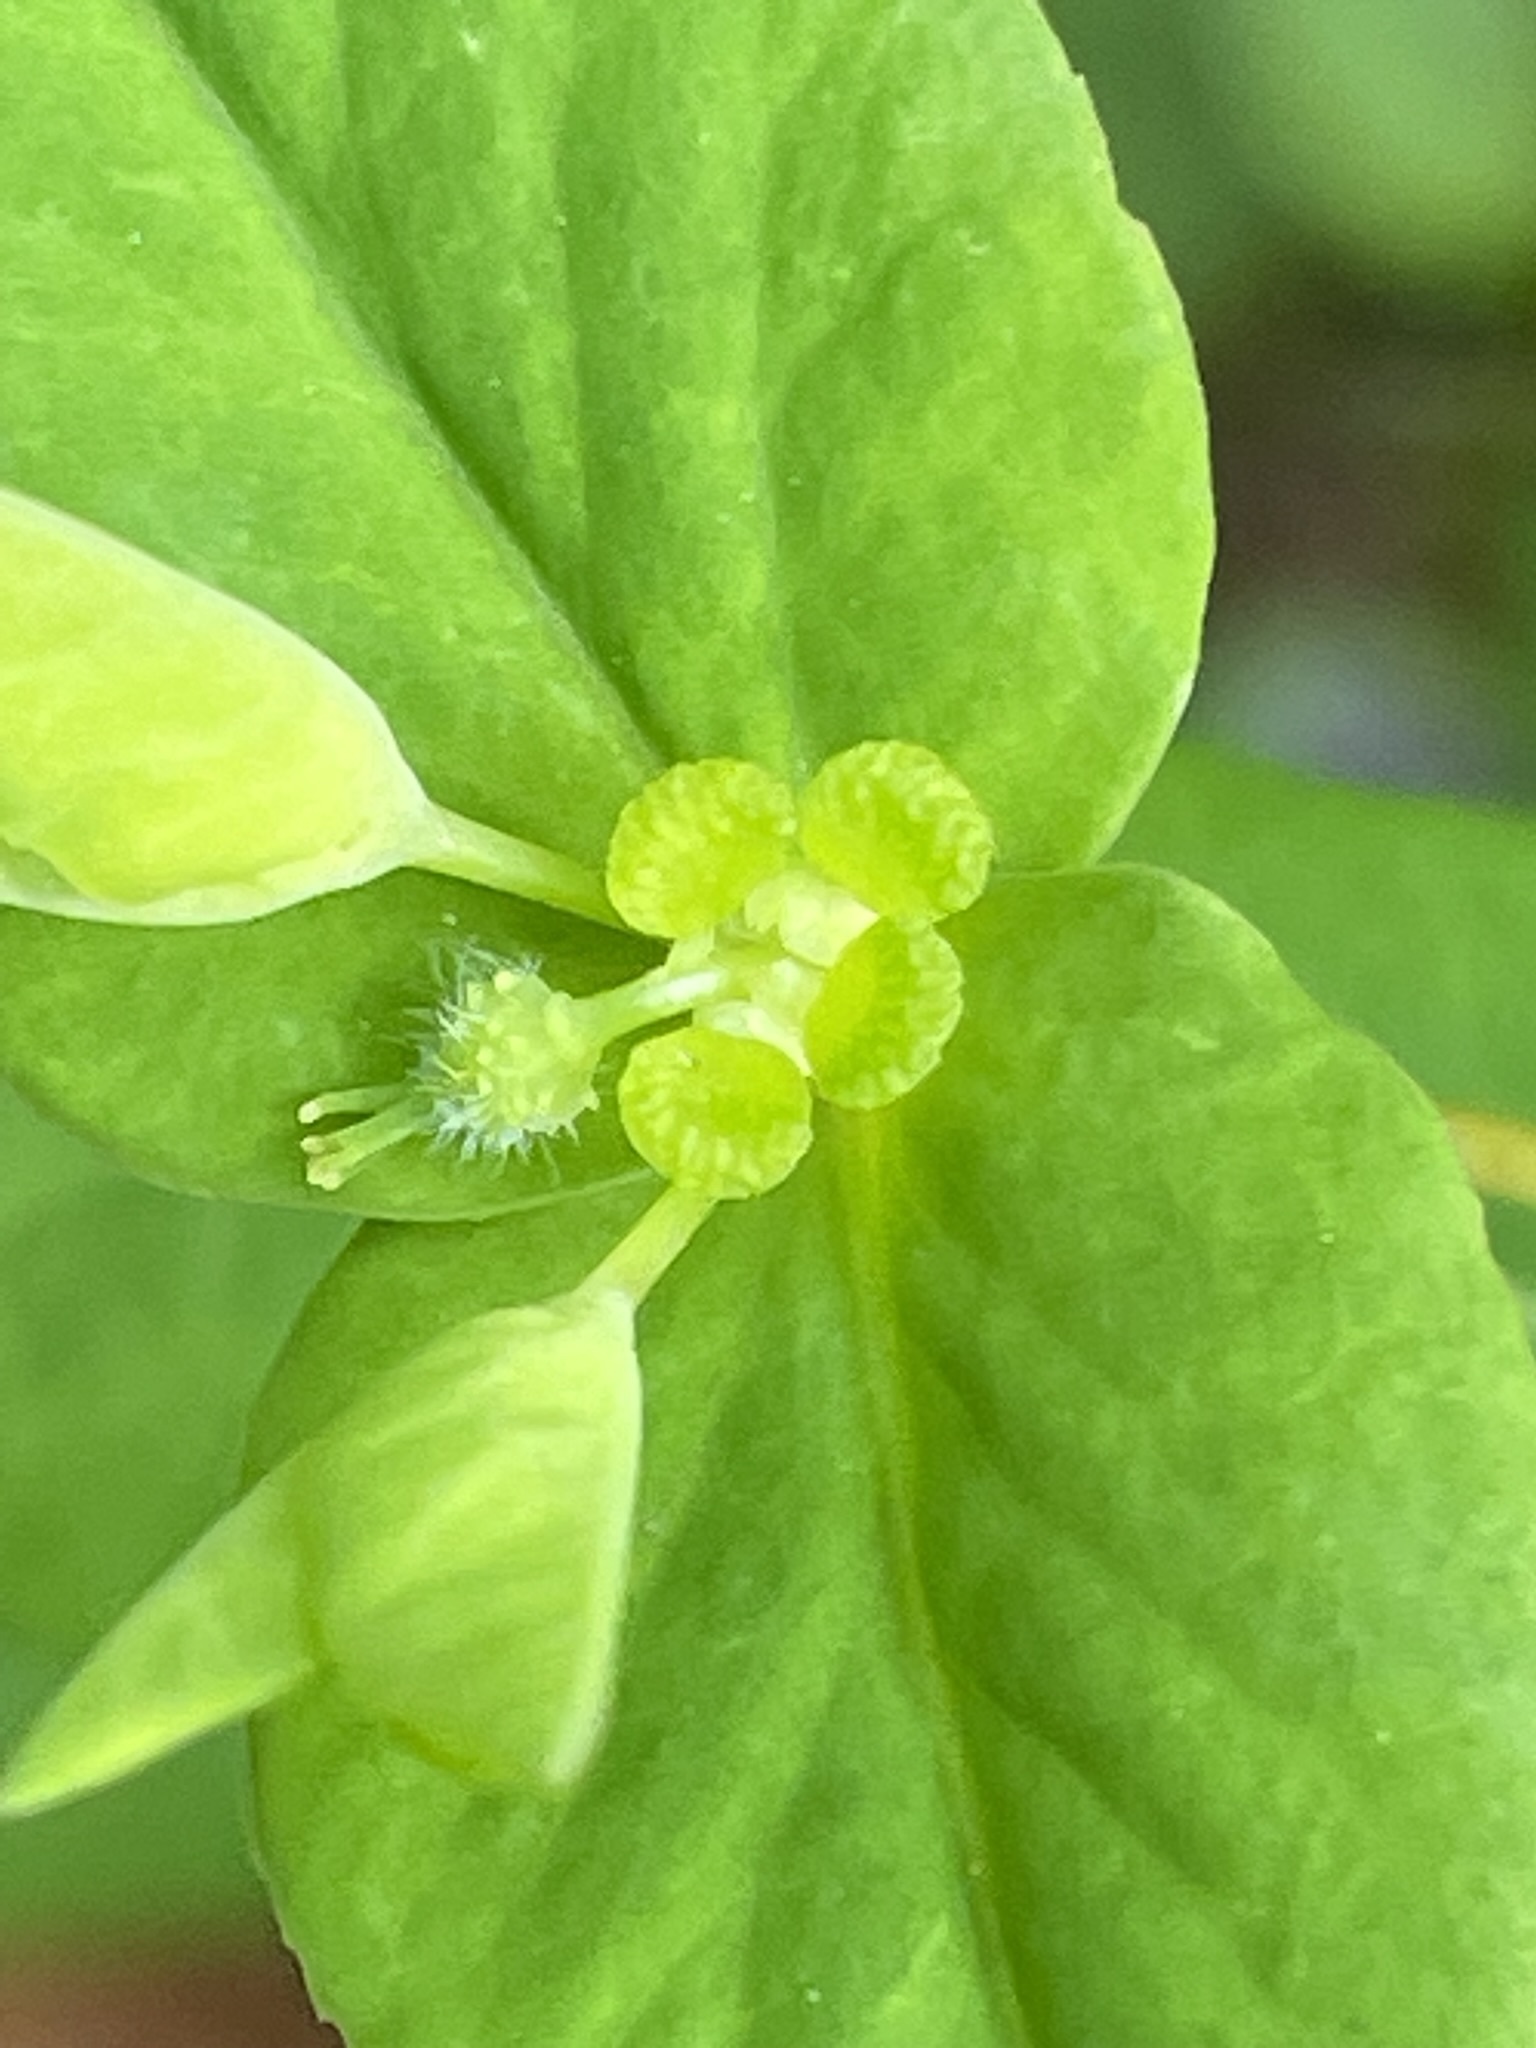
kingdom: Plantae
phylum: Tracheophyta
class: Magnoliopsida
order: Malpighiales
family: Euphorbiaceae
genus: Euphorbia
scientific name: Euphorbia dulcis
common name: Sweet spurge
